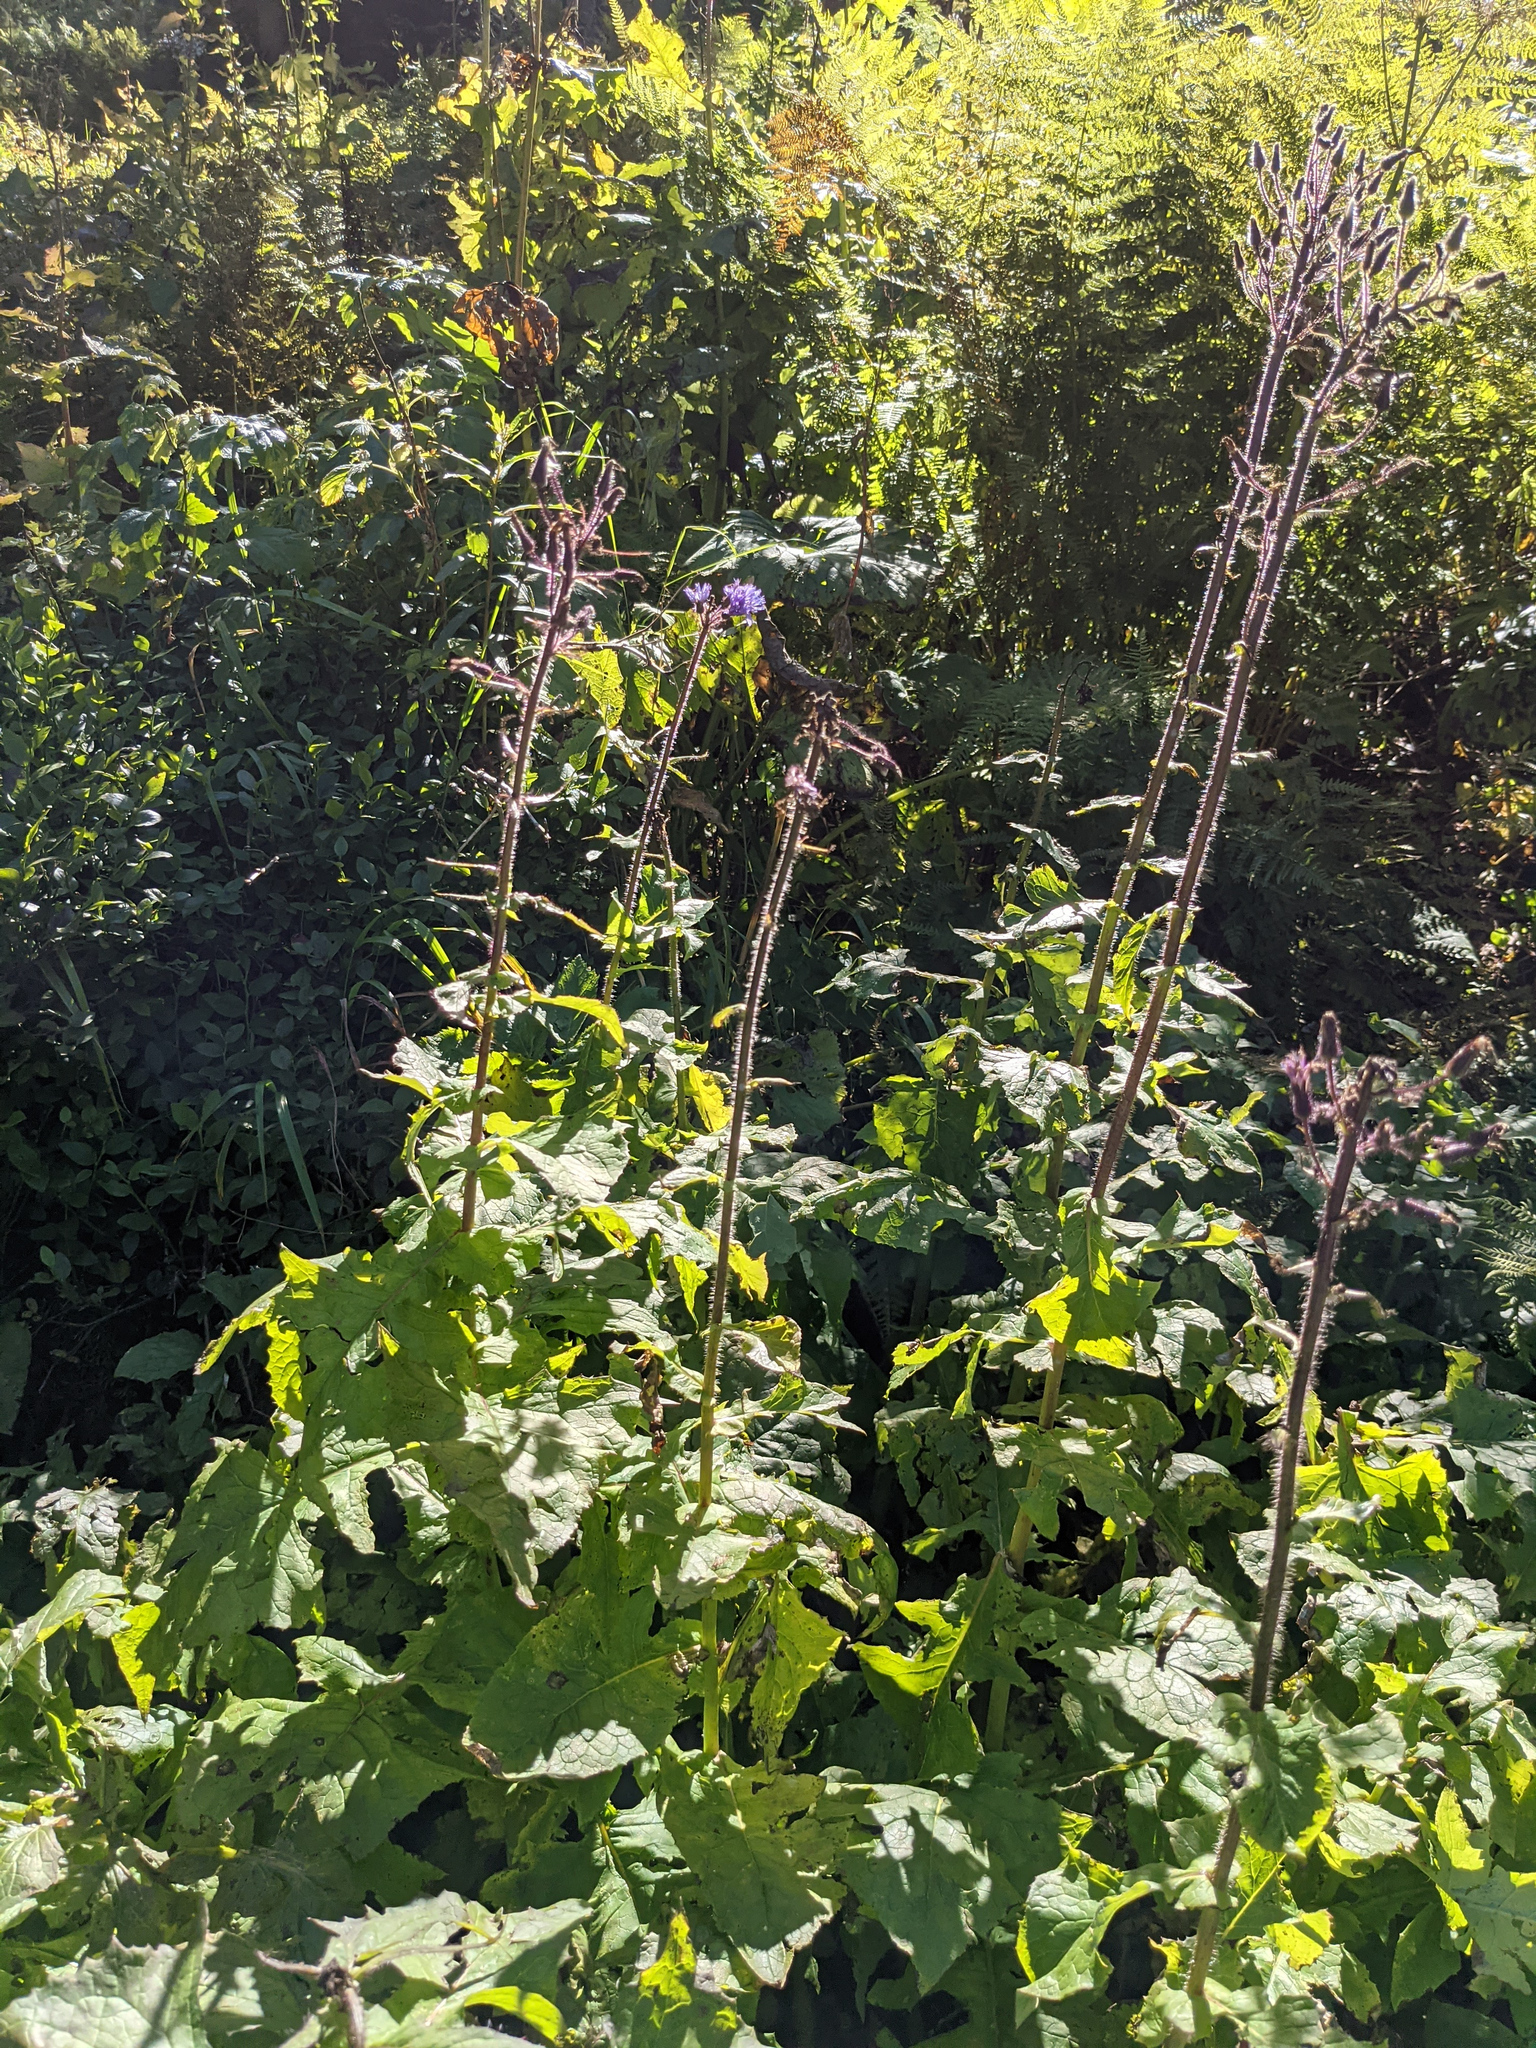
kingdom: Plantae
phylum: Tracheophyta
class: Magnoliopsida
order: Asterales
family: Asteraceae
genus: Cicerbita
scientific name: Cicerbita alpina
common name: Alpine blue-sow-thistle
